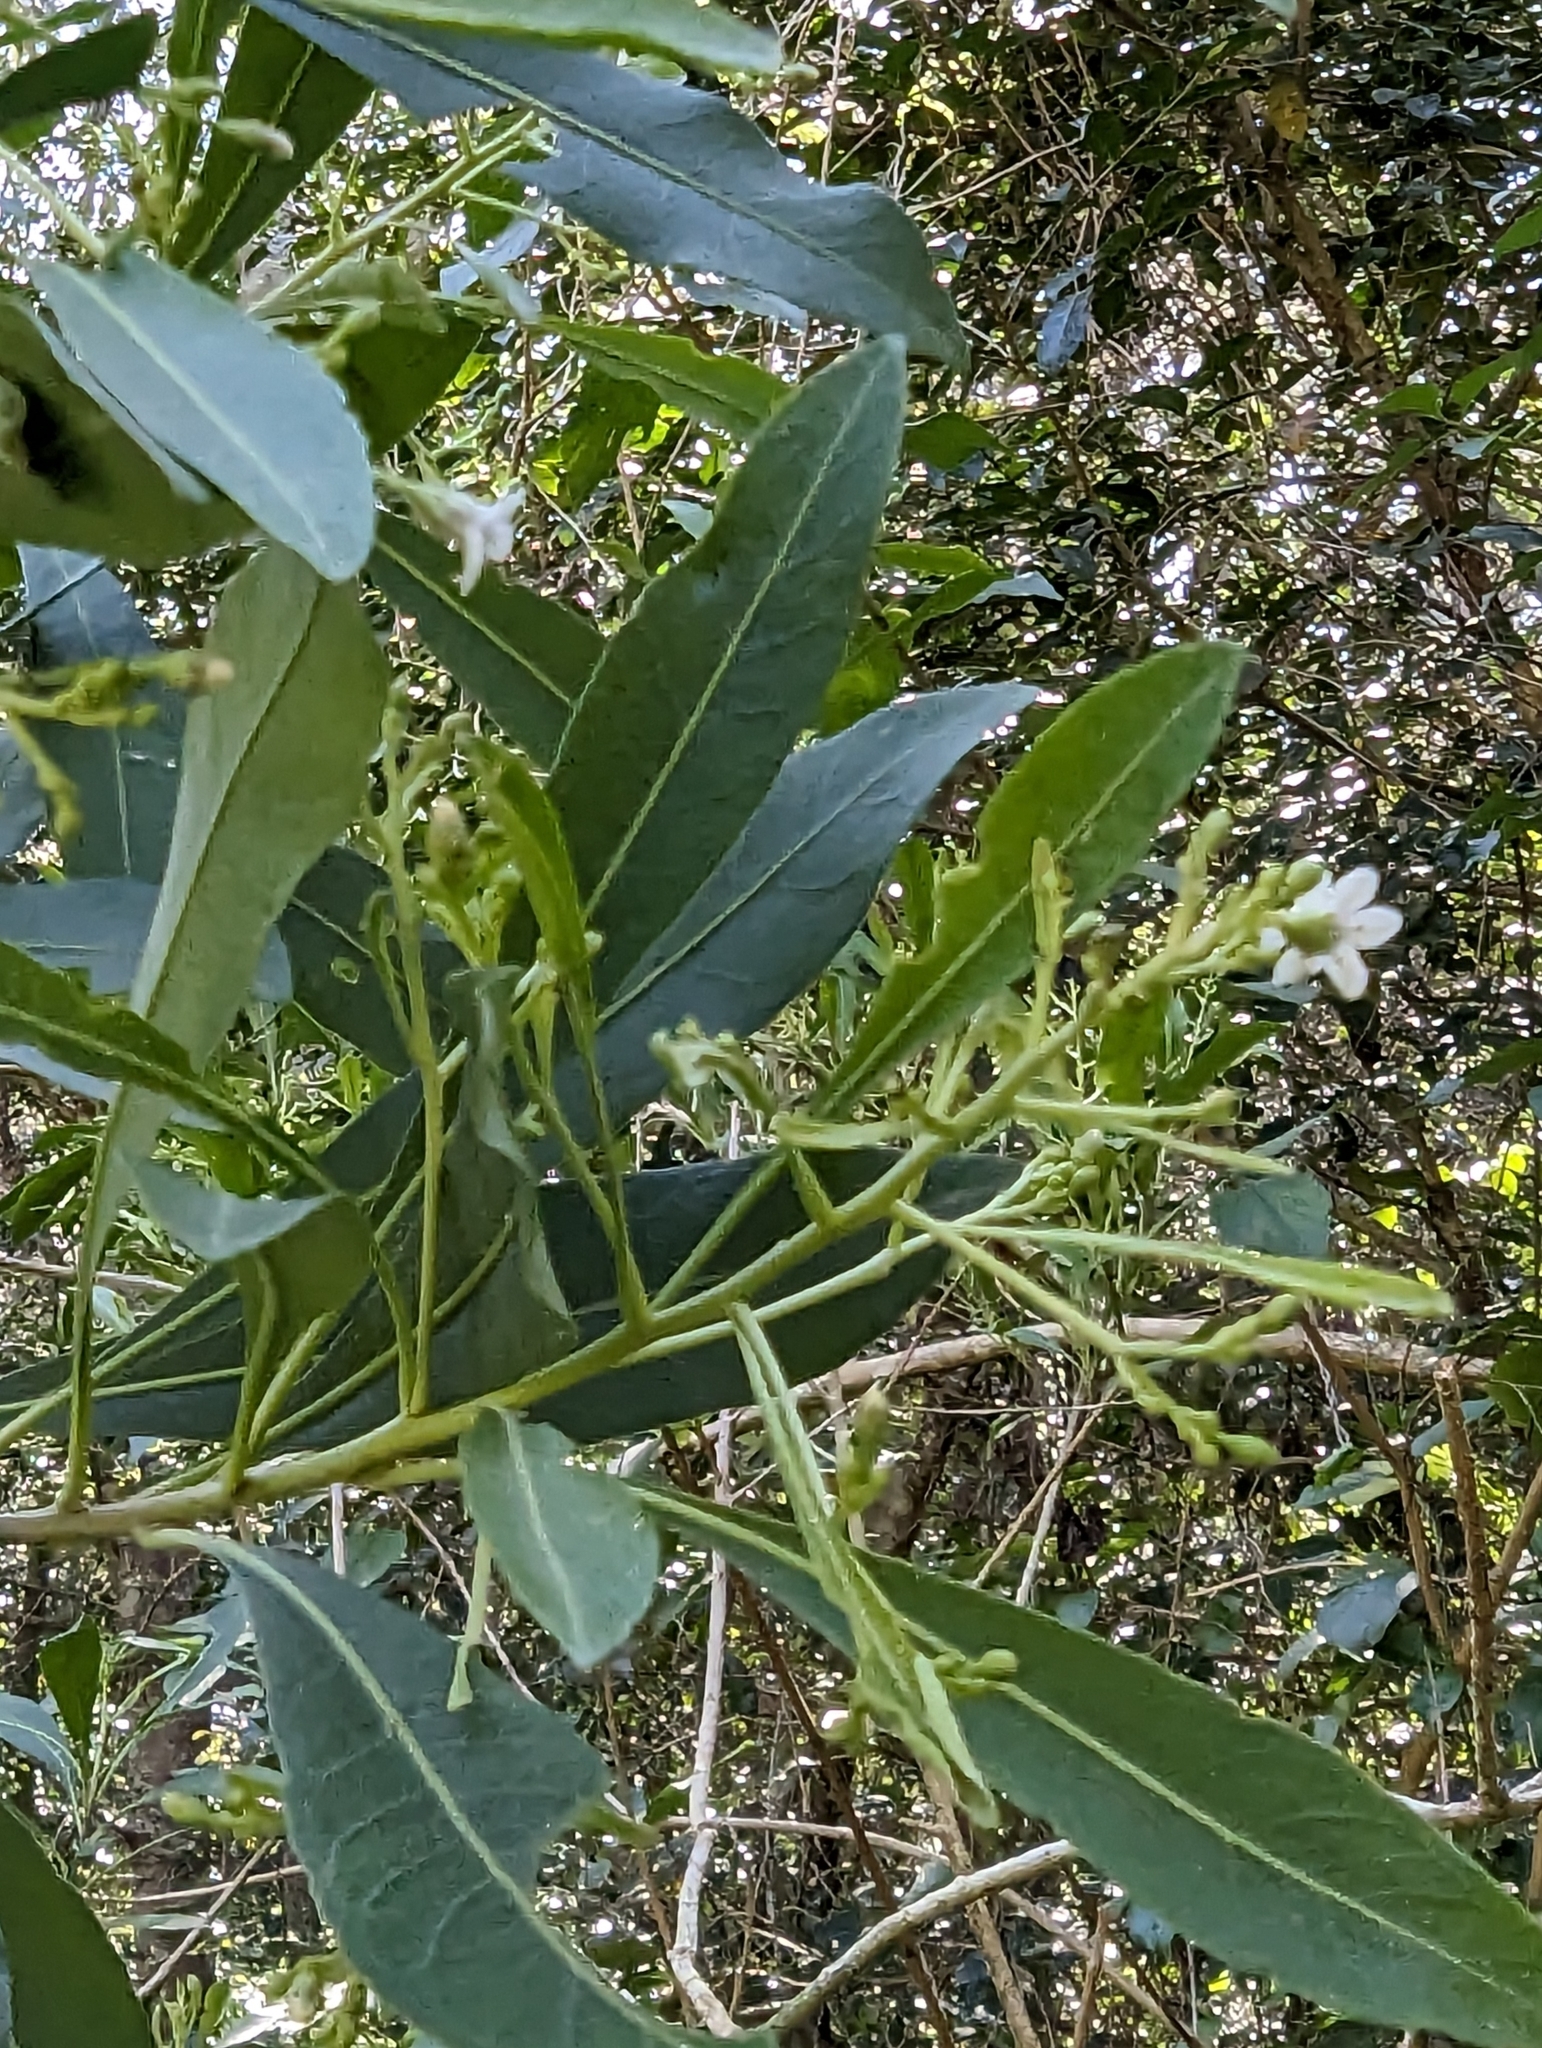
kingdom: Plantae
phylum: Tracheophyta
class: Magnoliopsida
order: Solanales
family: Solanaceae
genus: Duboisia
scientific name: Duboisia myoporoides
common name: Corkwoodtree
